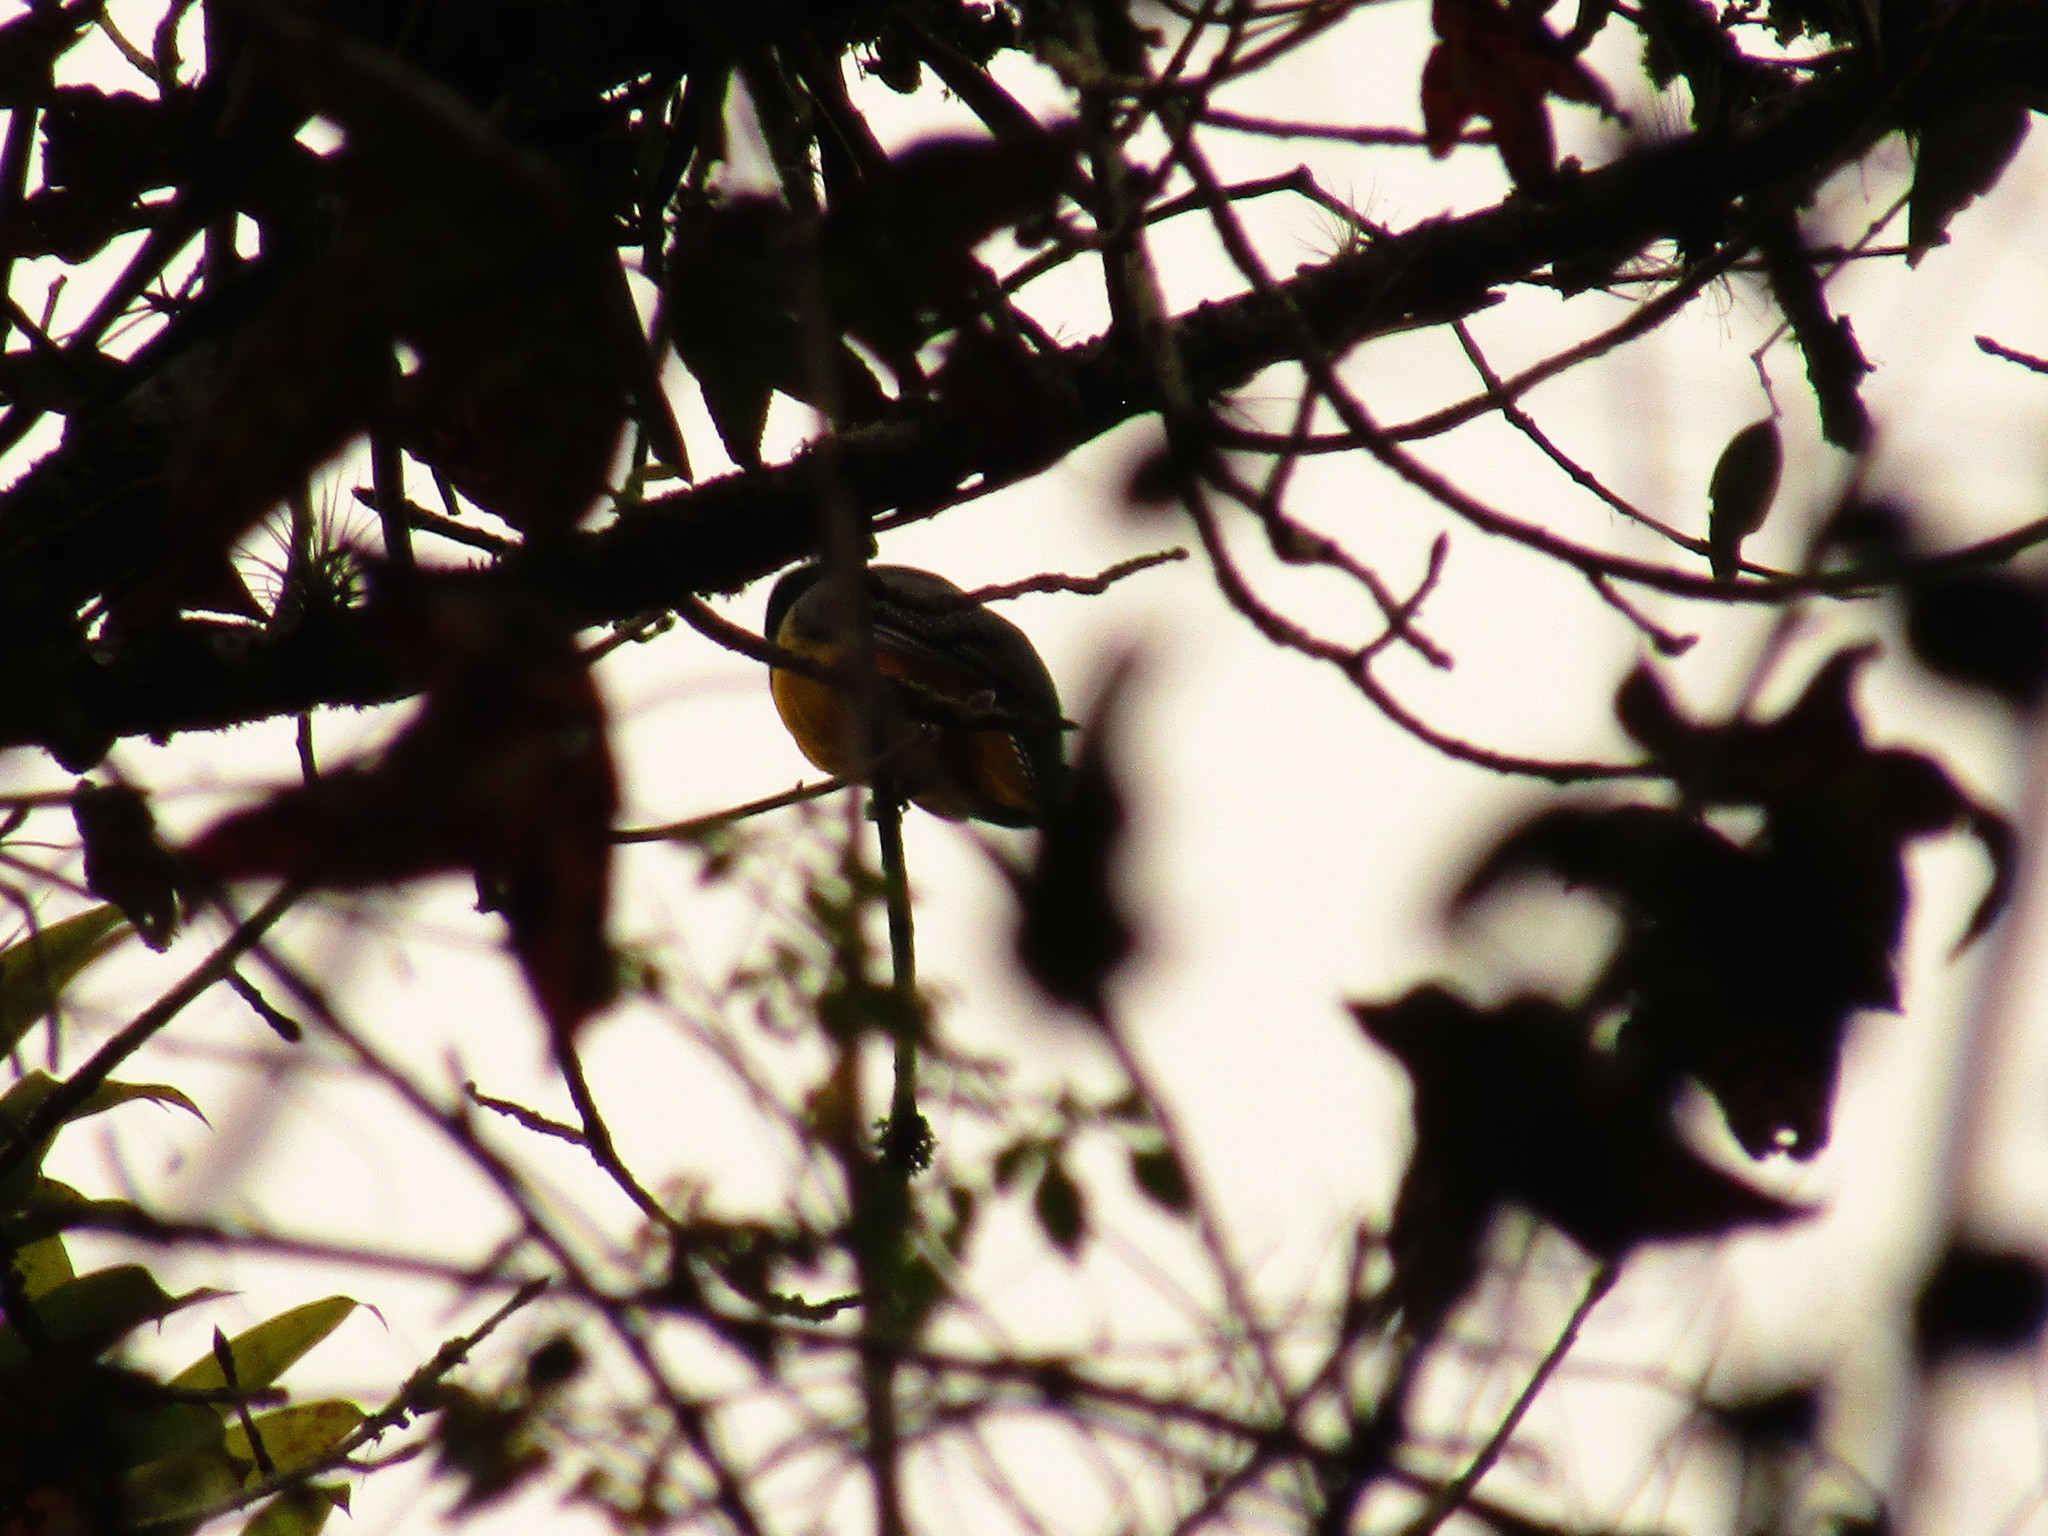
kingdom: Animalia
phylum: Chordata
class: Aves
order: Trogoniformes
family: Trogonidae
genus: Trogon
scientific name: Trogon caligatus
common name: Gartered trogon
